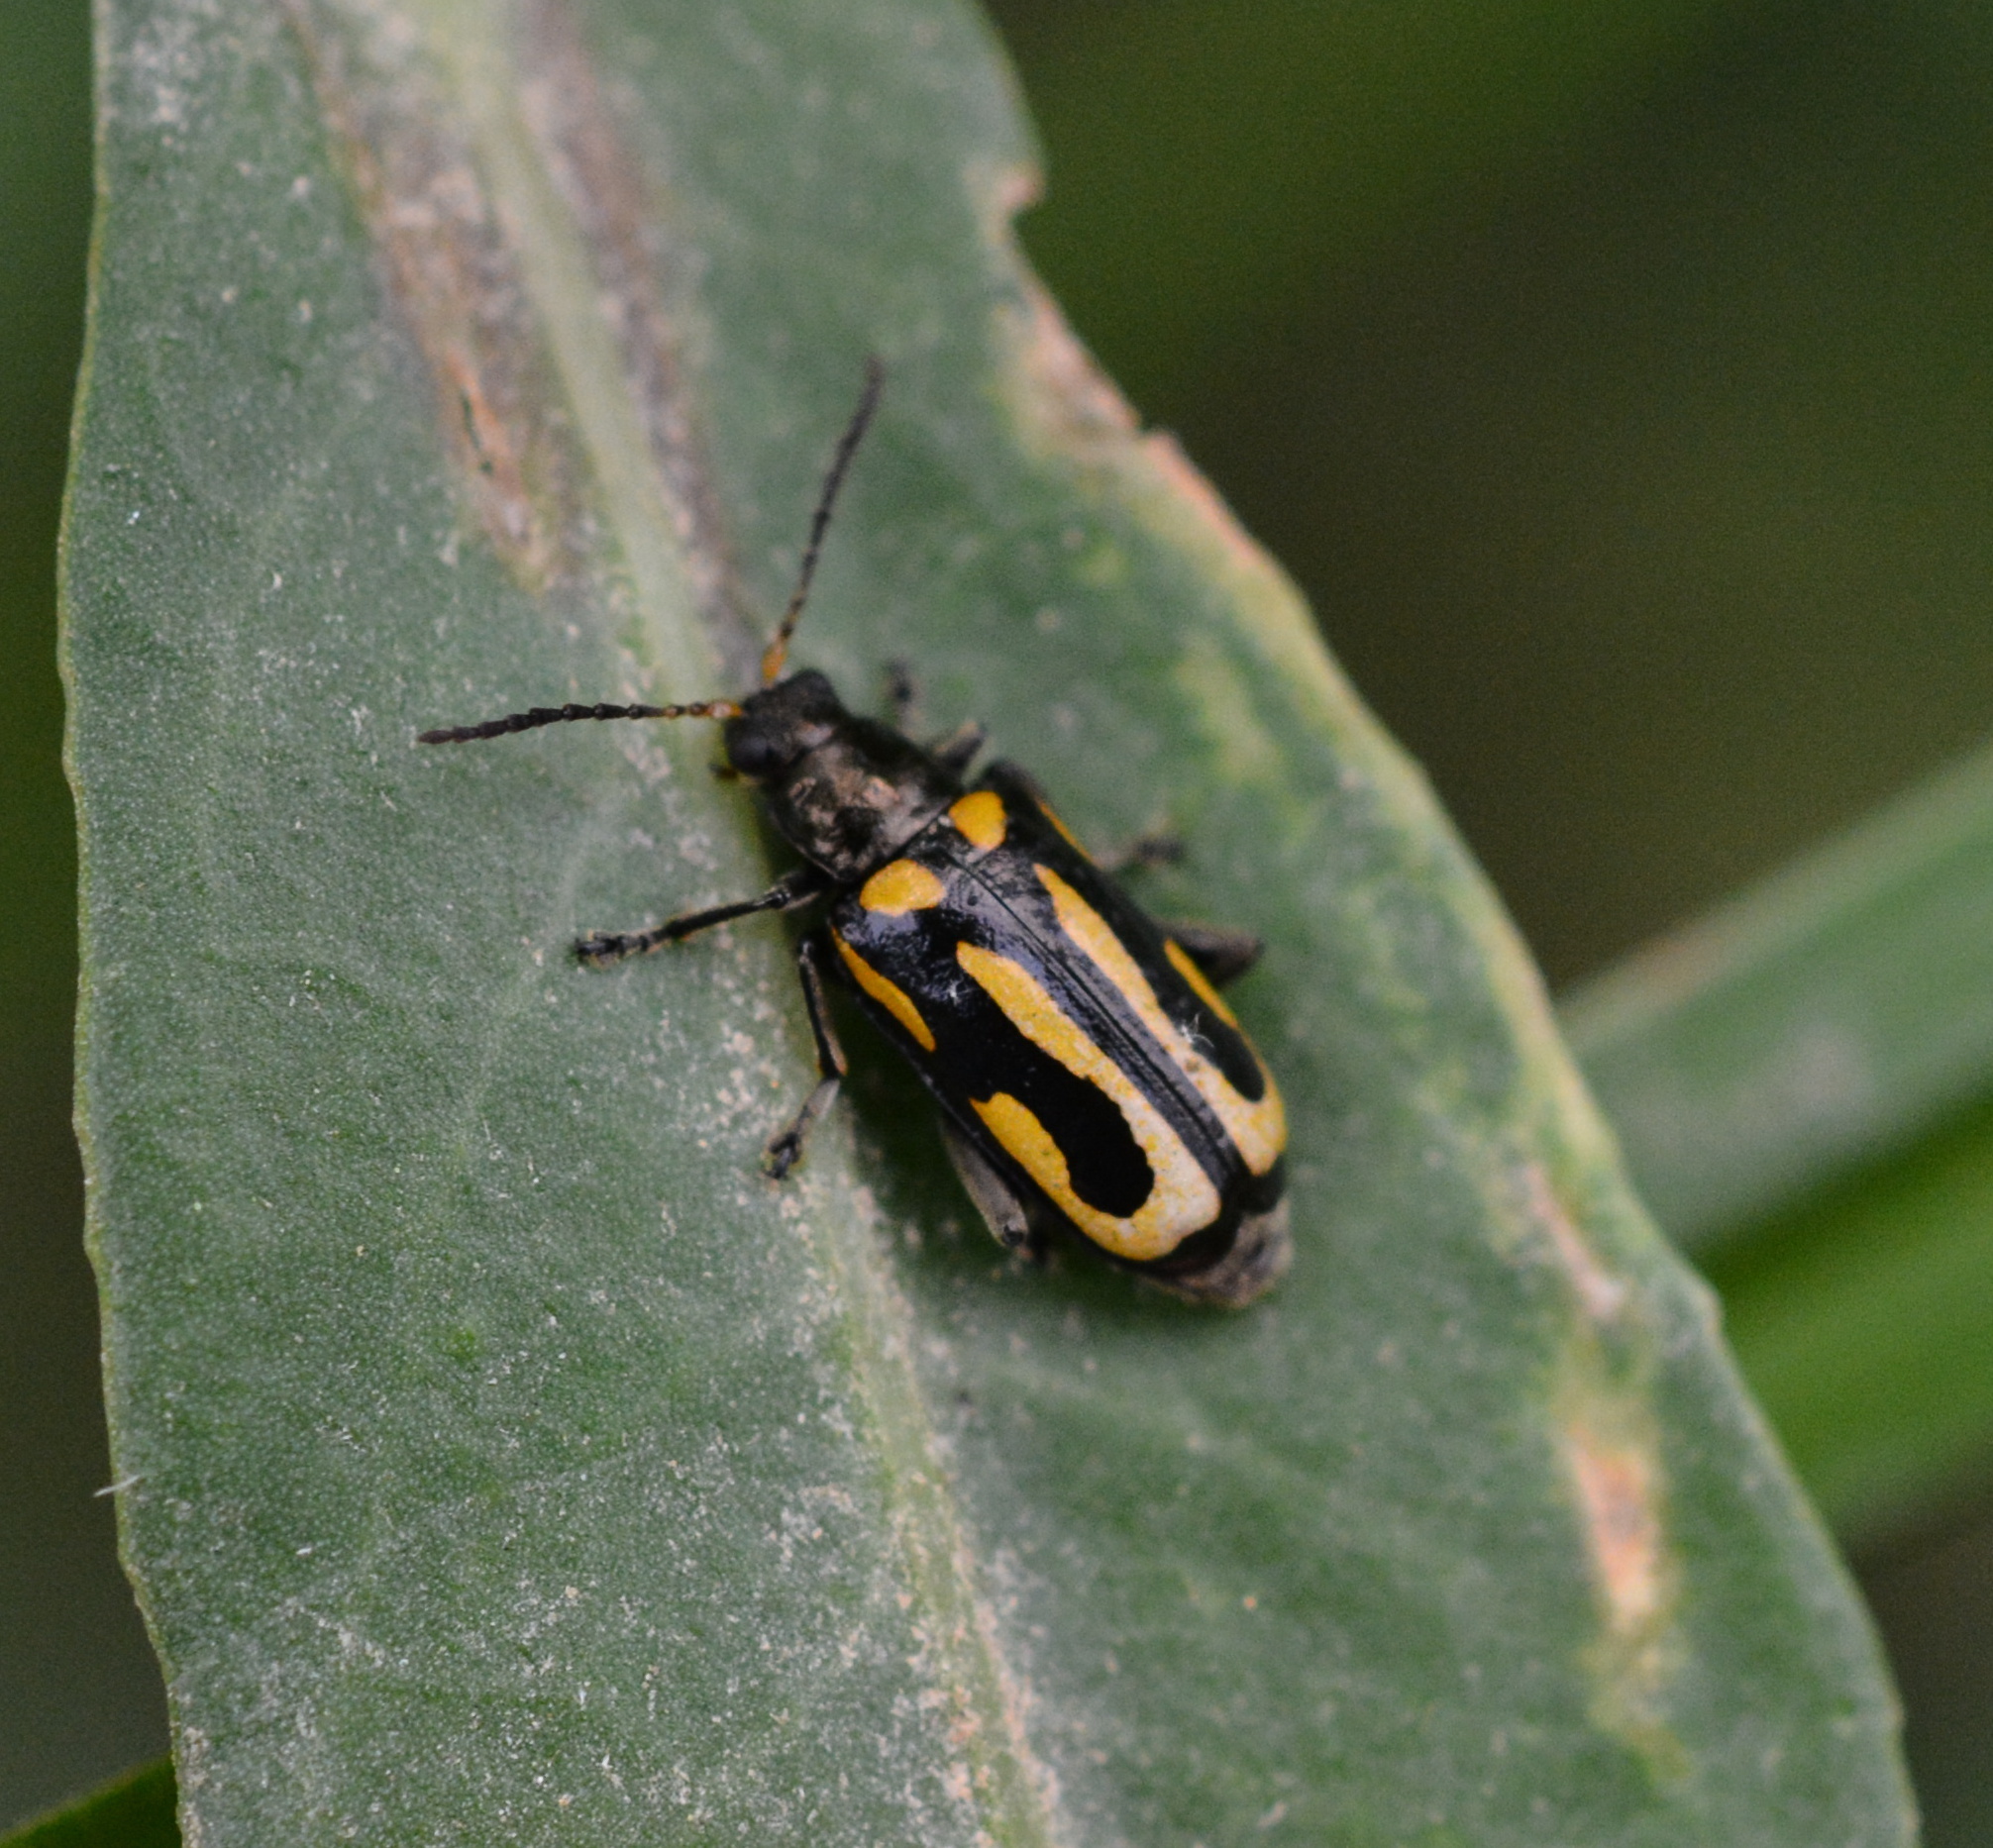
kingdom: Animalia
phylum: Arthropoda
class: Insecta
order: Coleoptera
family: Chrysomelidae
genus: Agasicles
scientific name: Agasicles hygrophila
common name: Alligatorweed flea beetle
